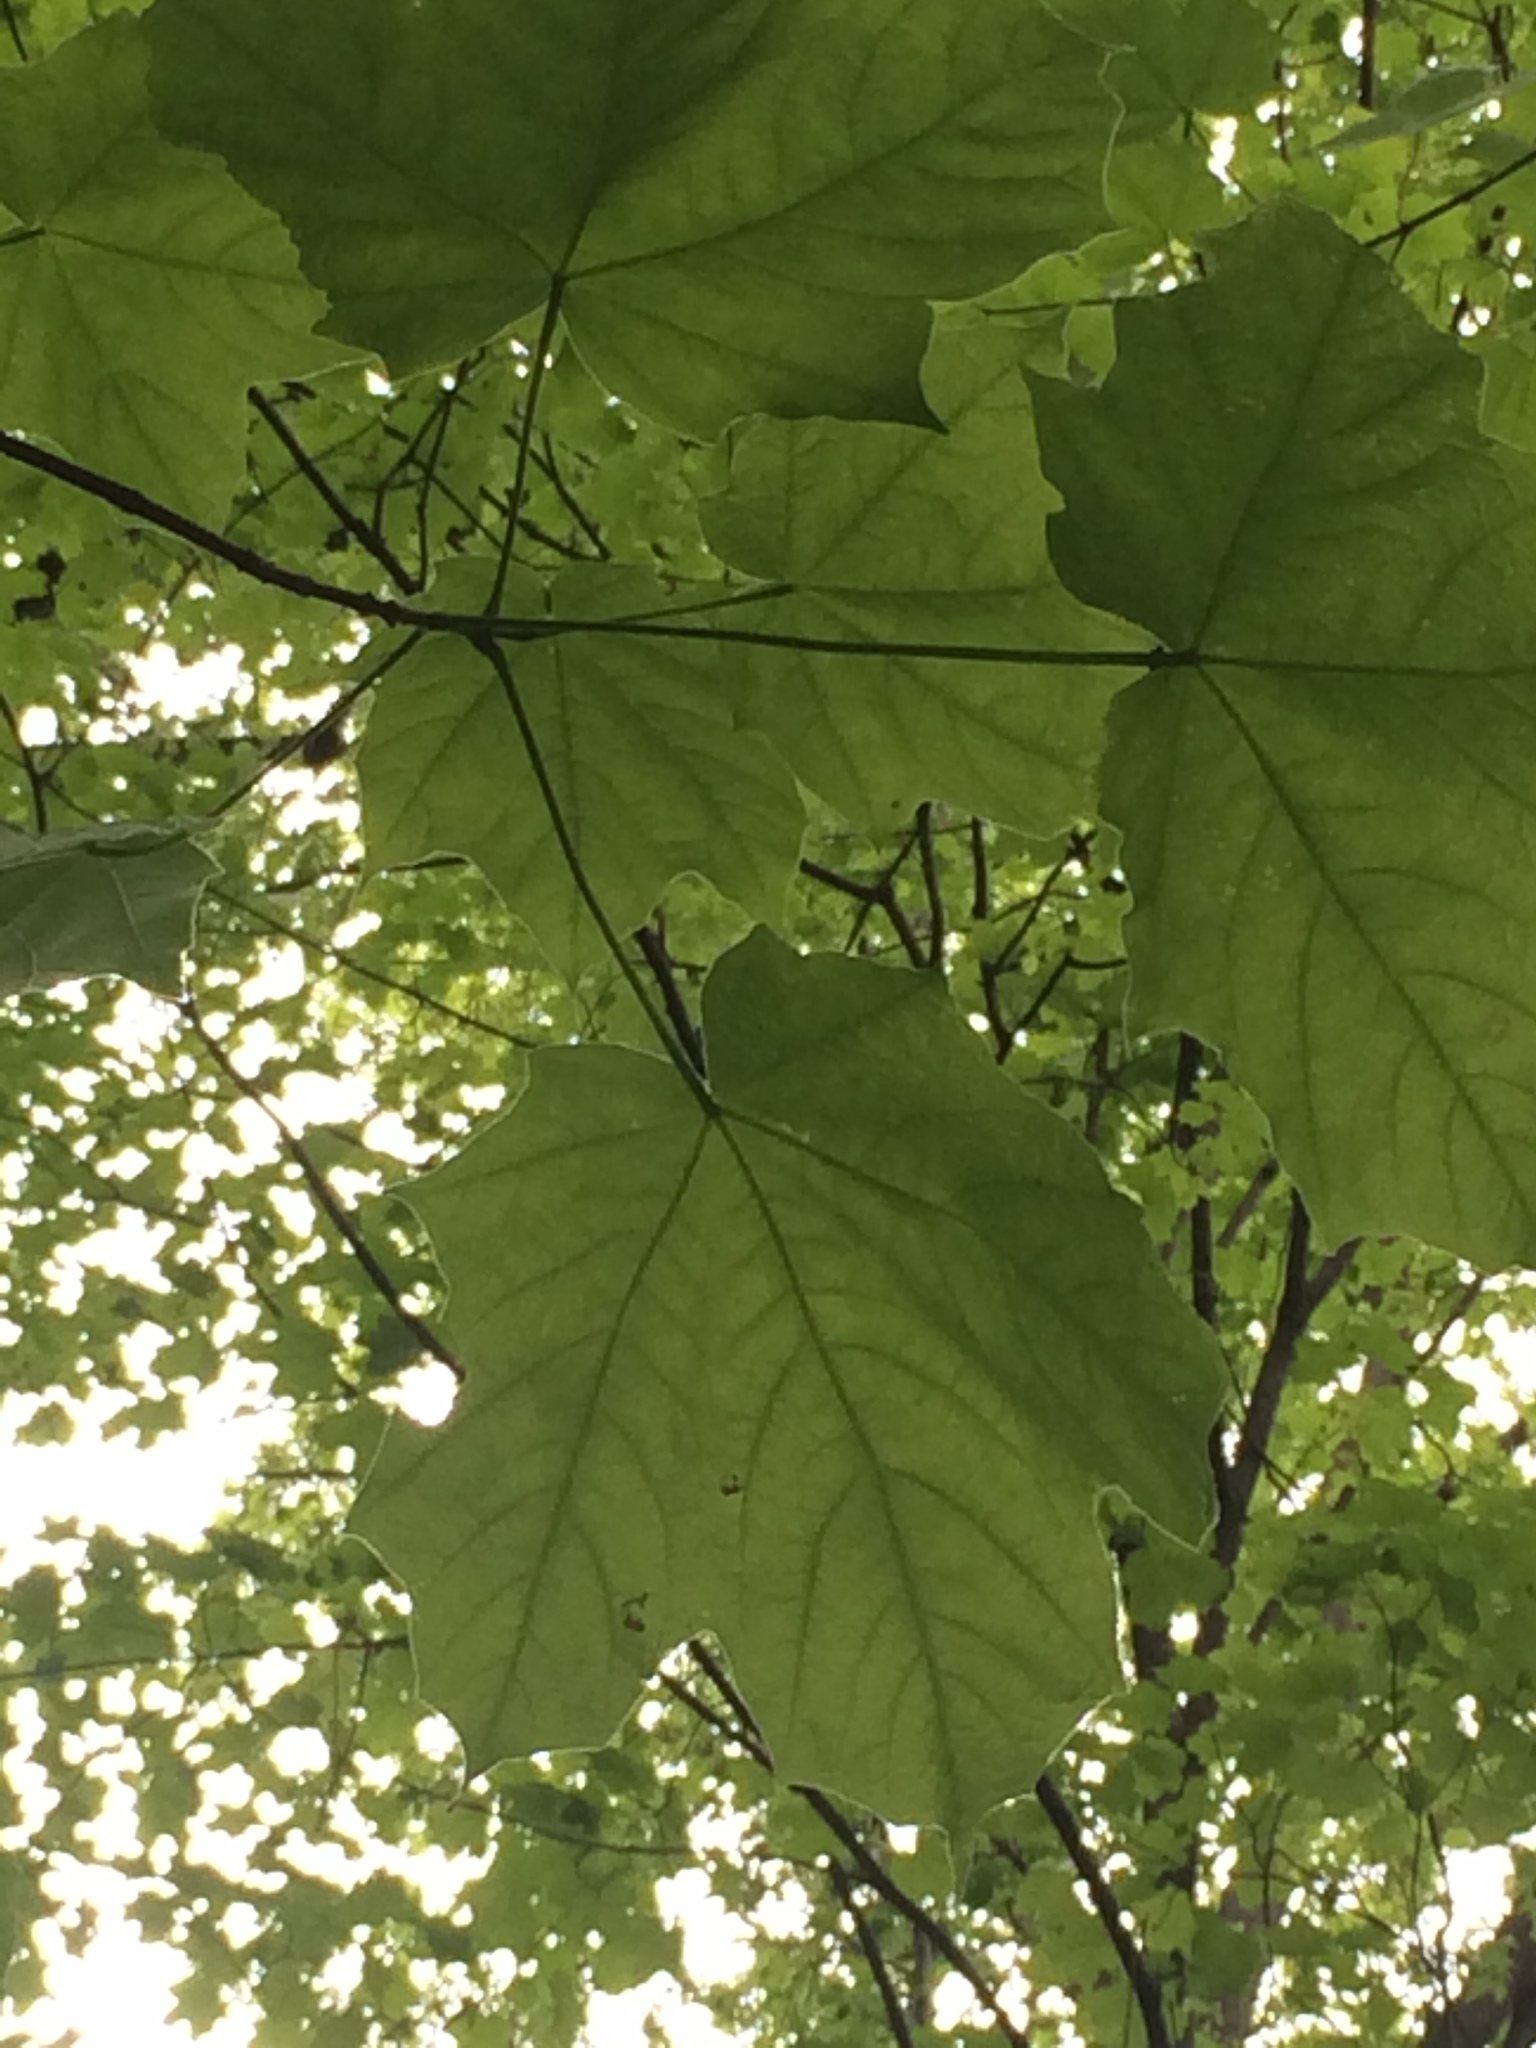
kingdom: Plantae
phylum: Tracheophyta
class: Magnoliopsida
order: Sapindales
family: Sapindaceae
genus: Acer
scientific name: Acer nigrum
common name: Black maple
